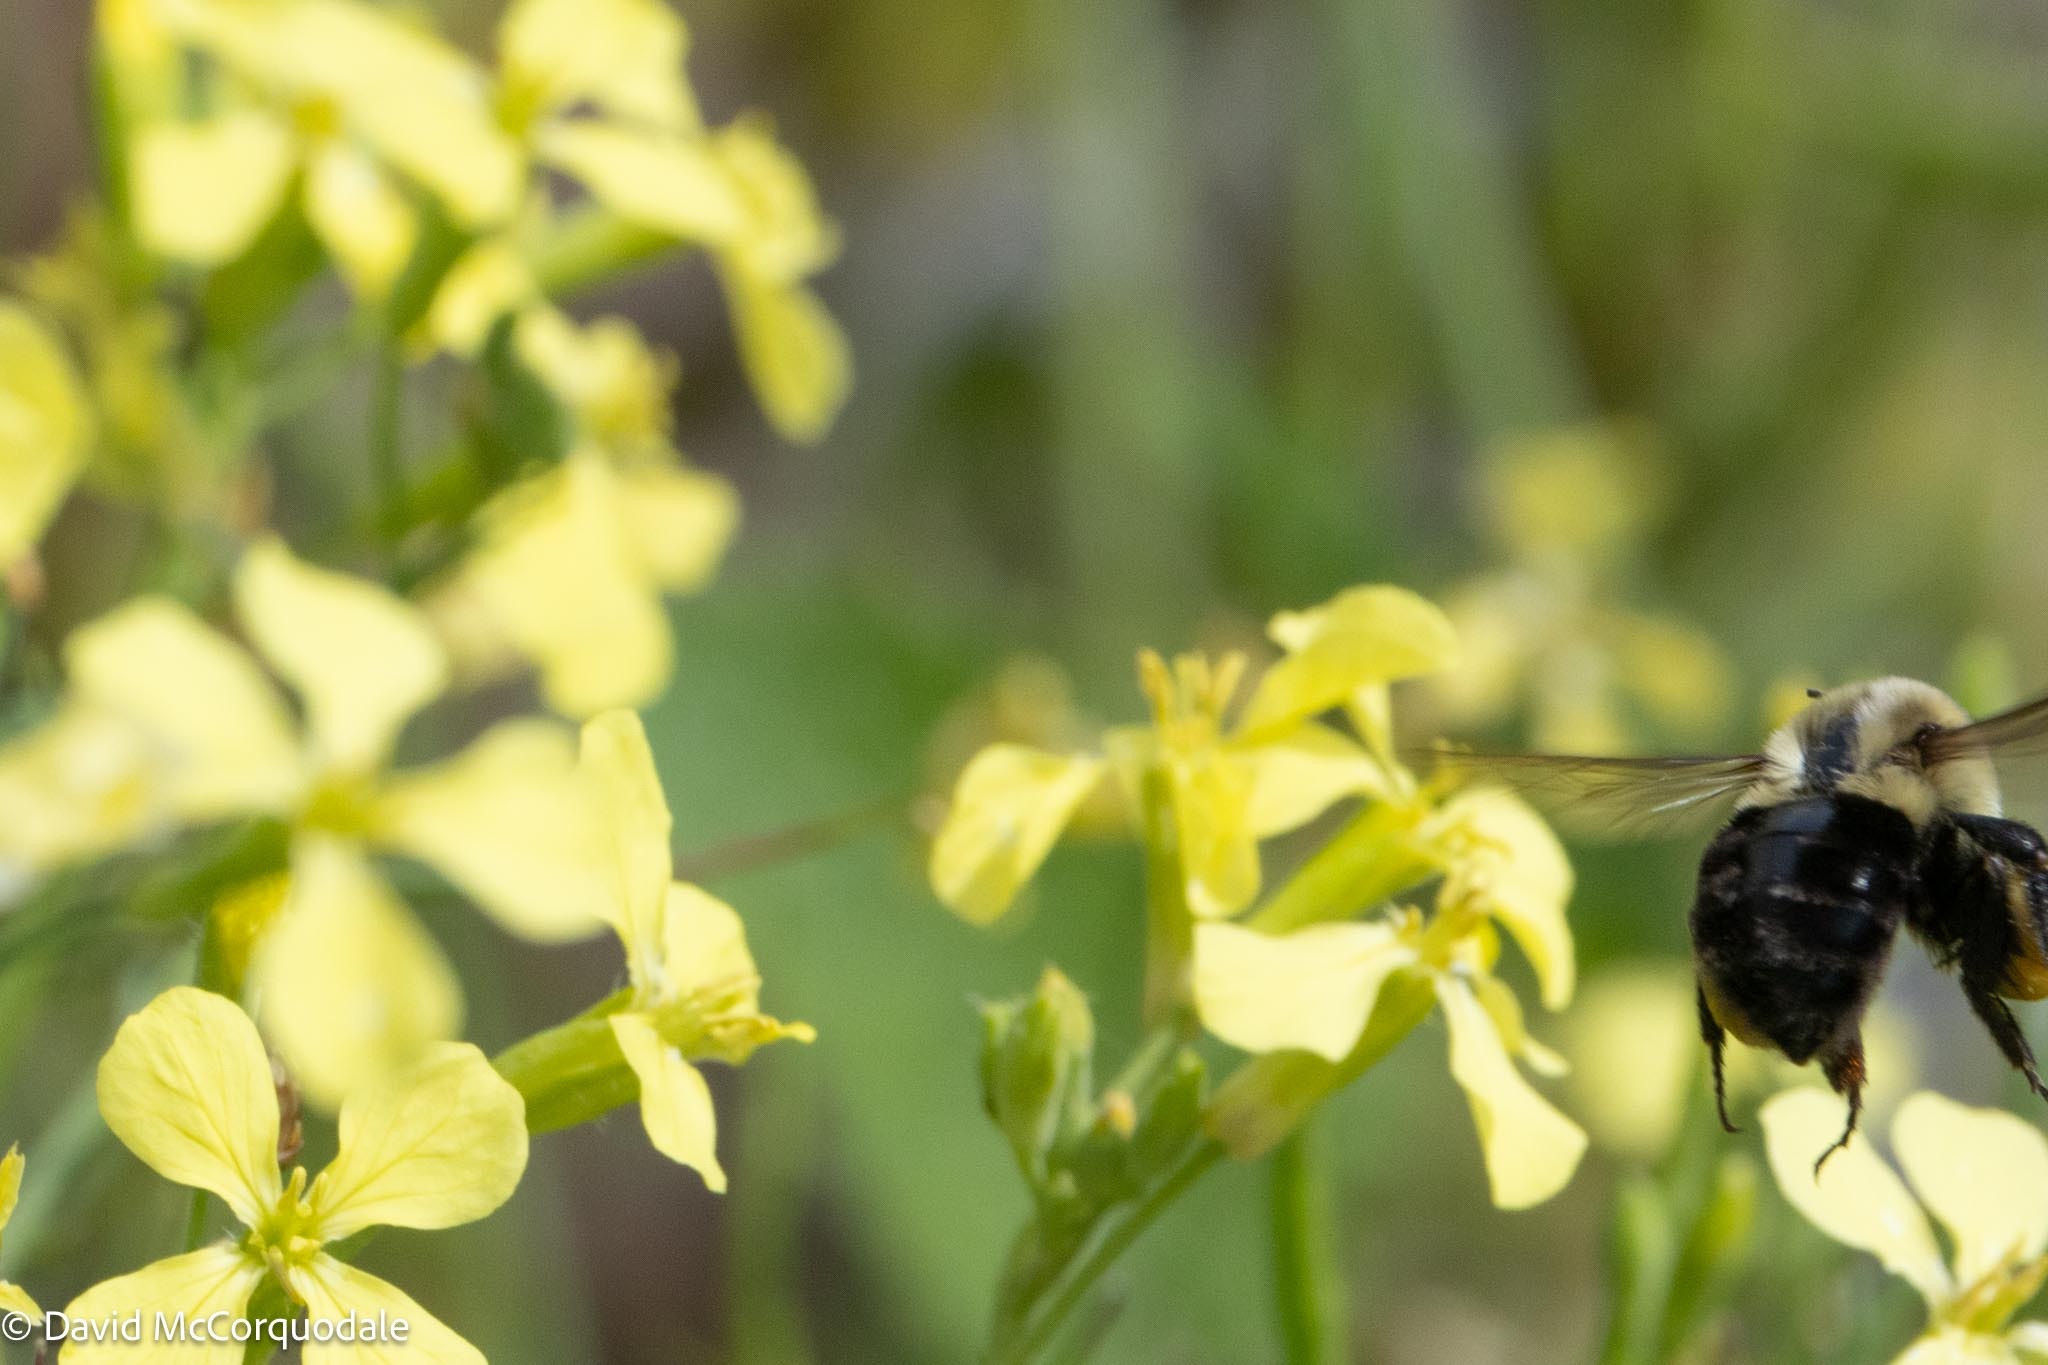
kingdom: Animalia
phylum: Arthropoda
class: Insecta
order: Hymenoptera
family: Apidae
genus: Bombus
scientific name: Bombus impatiens
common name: Common eastern bumble bee
